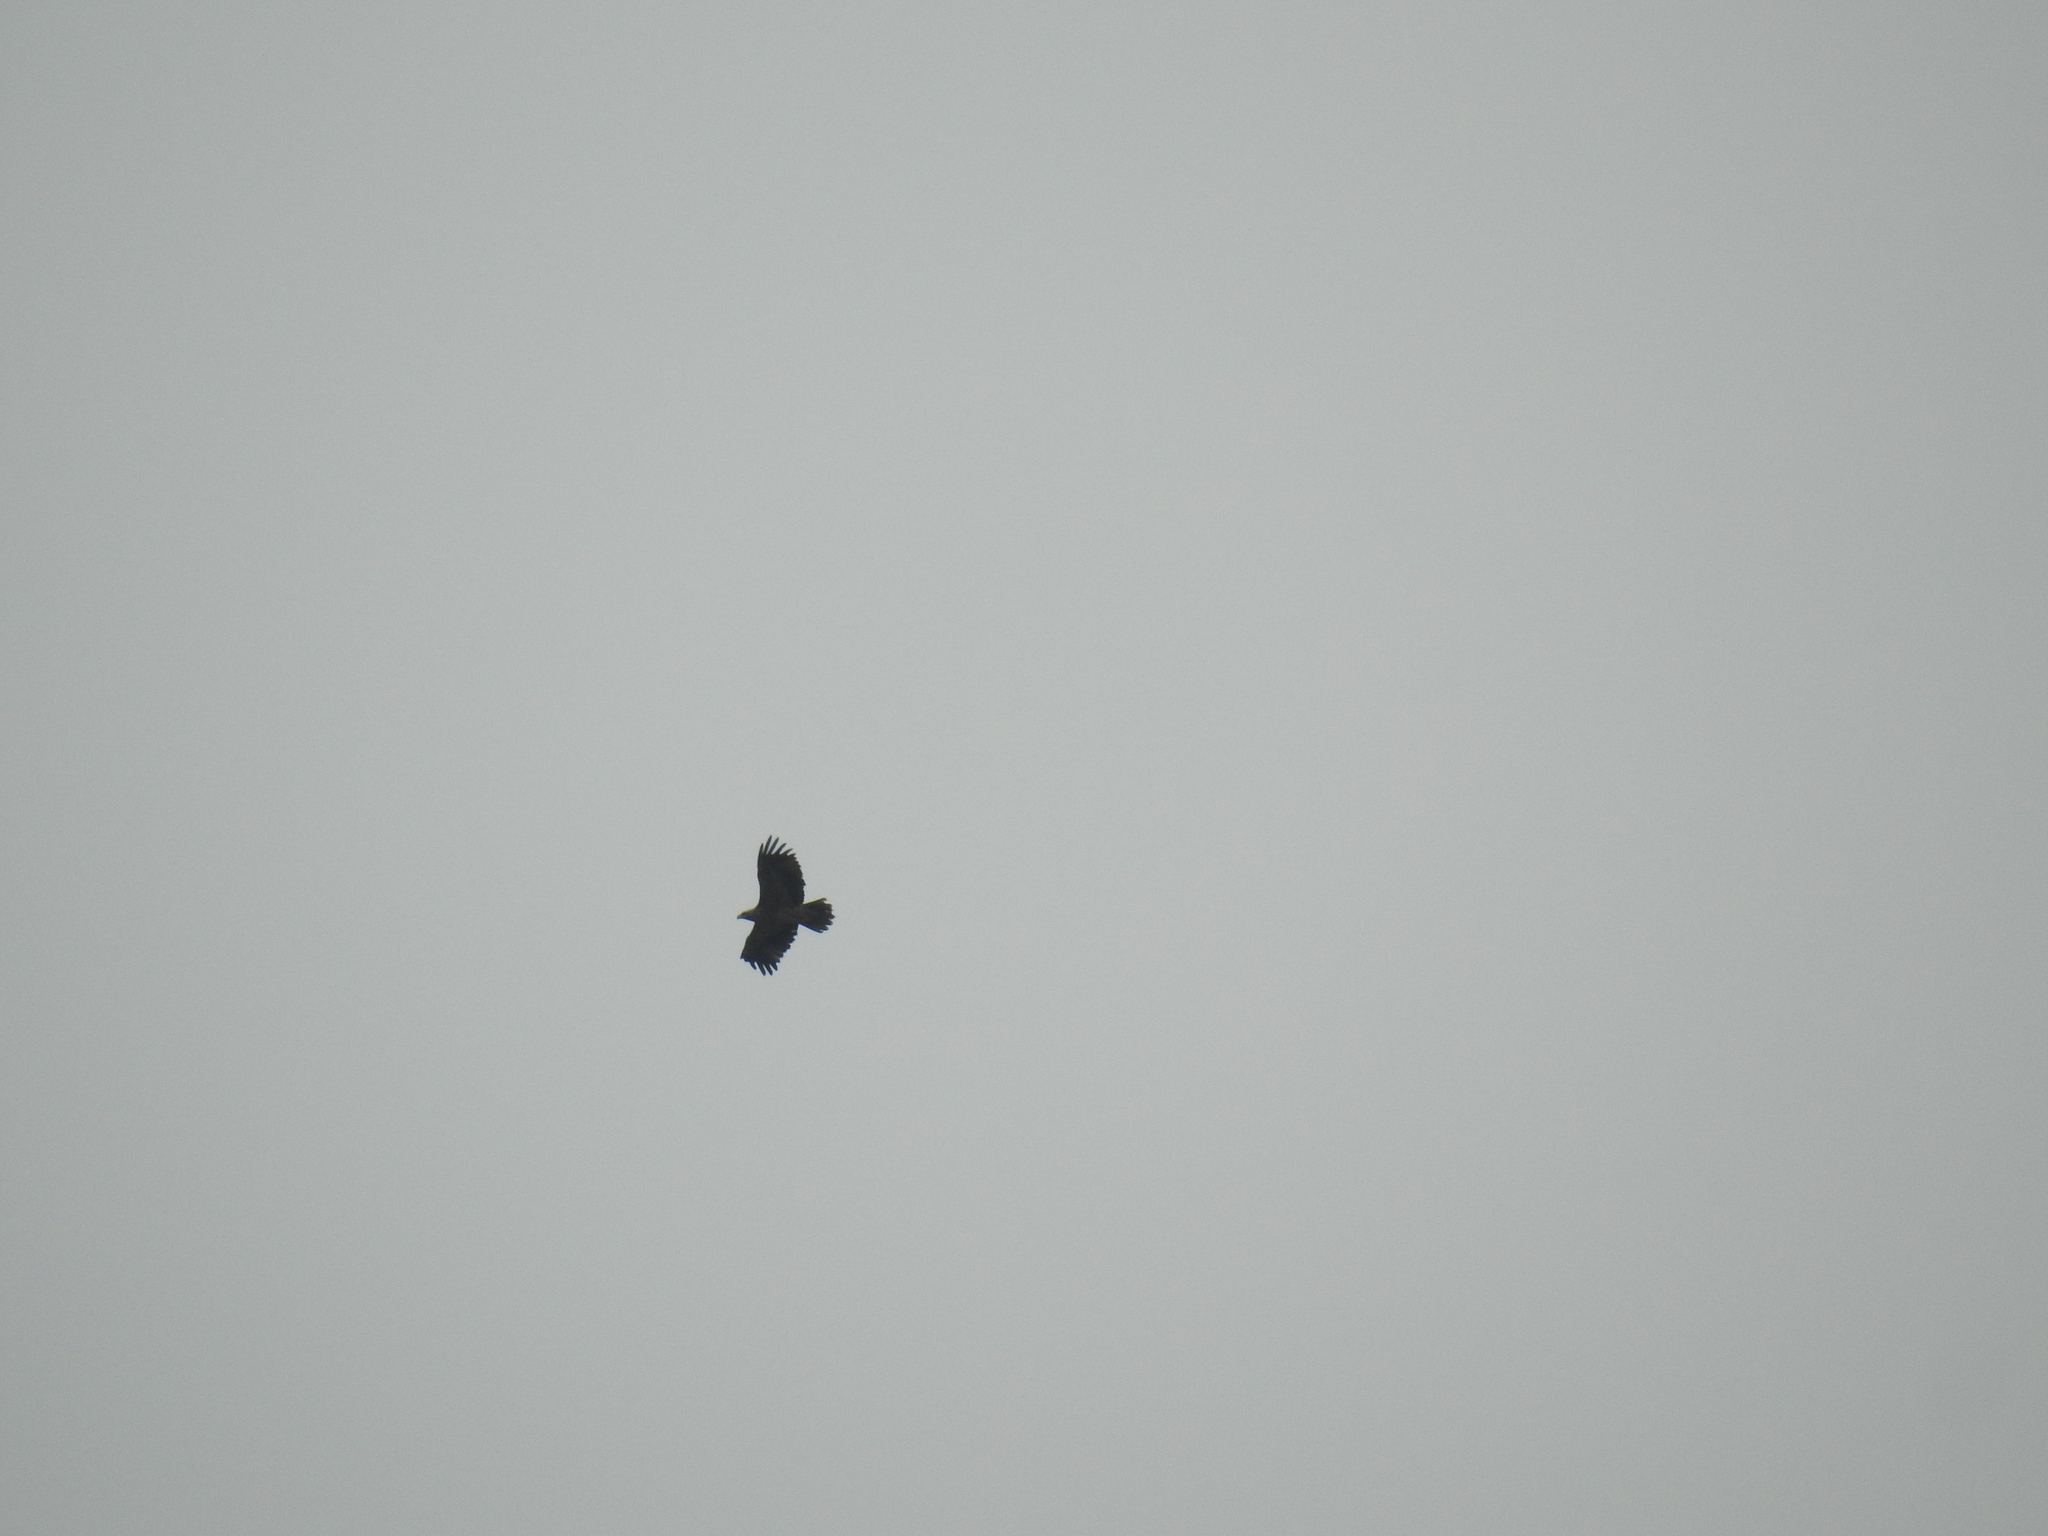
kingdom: Animalia
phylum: Chordata
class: Aves
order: Accipitriformes
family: Accipitridae
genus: Aquila
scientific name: Aquila heliaca
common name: Eastern imperial eagle
